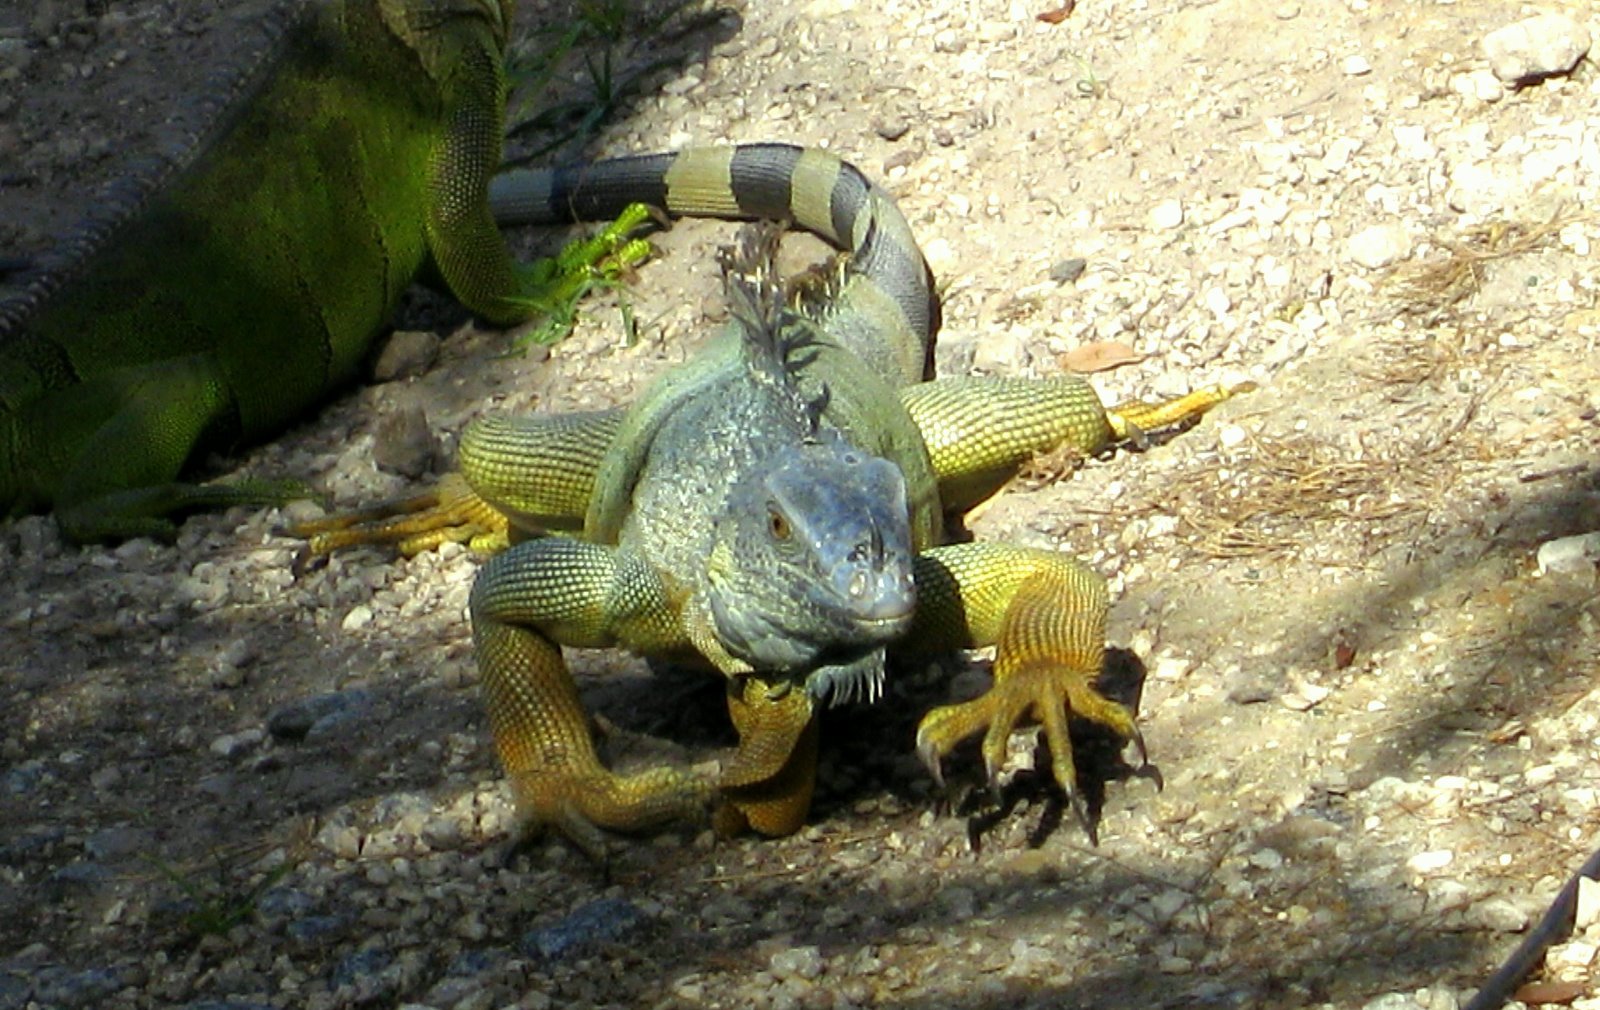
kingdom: Animalia
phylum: Chordata
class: Squamata
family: Iguanidae
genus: Iguana
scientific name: Iguana iguana
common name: Green iguana
